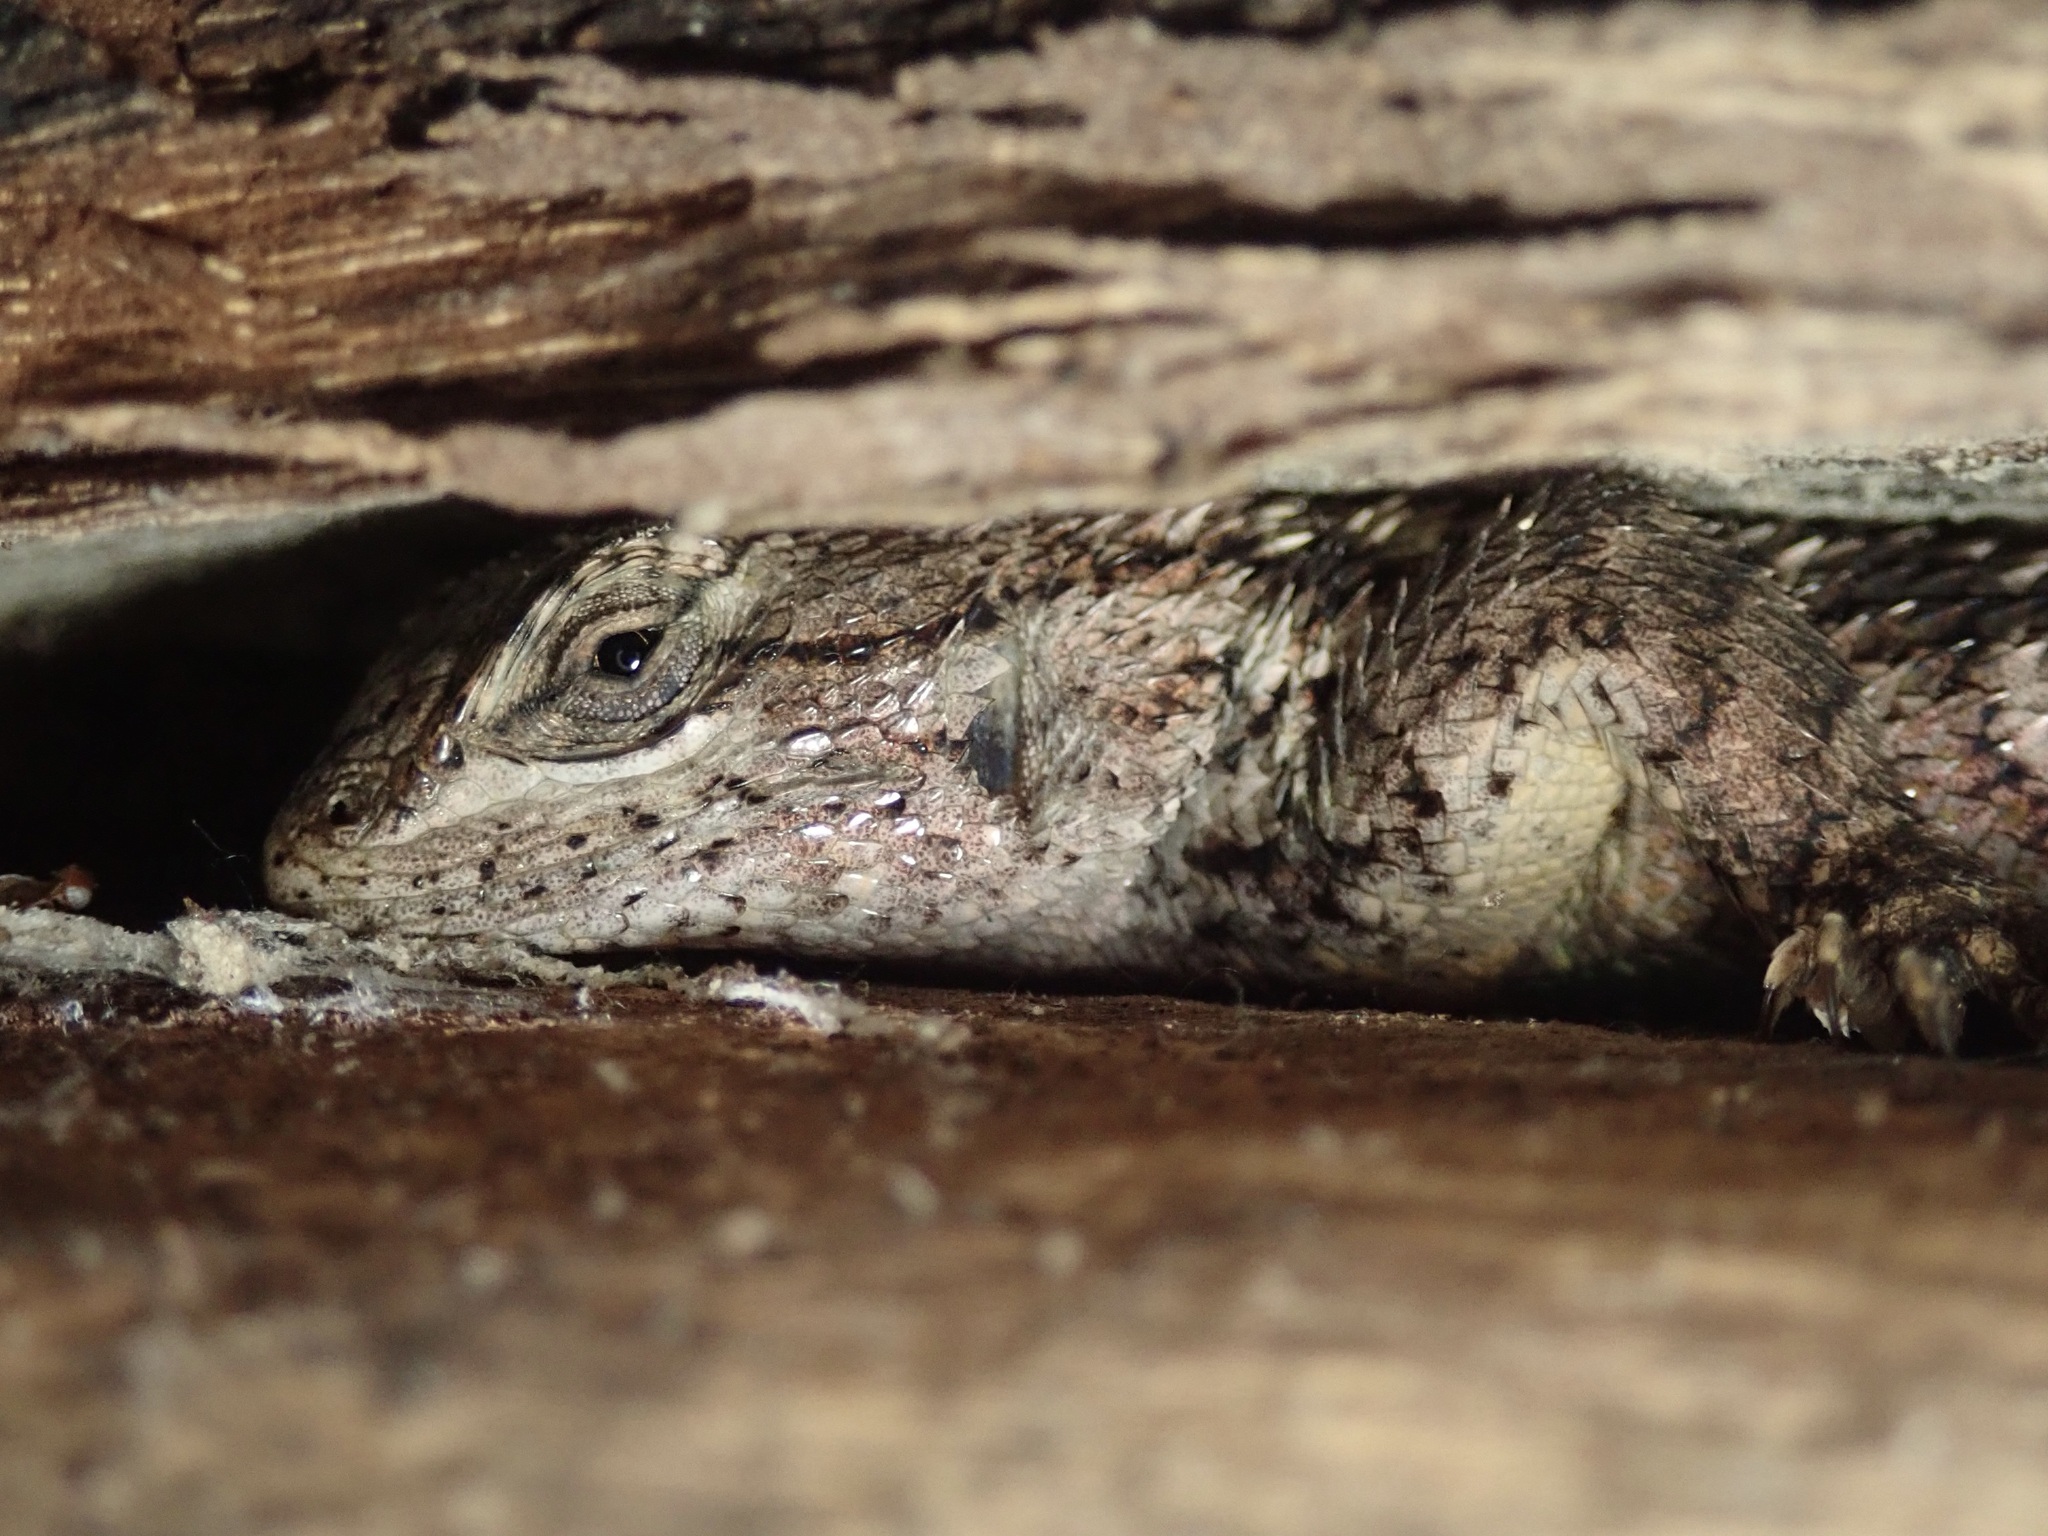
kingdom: Animalia
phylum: Chordata
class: Squamata
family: Phrynosomatidae
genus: Sceloporus
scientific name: Sceloporus occidentalis
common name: Western fence lizard
